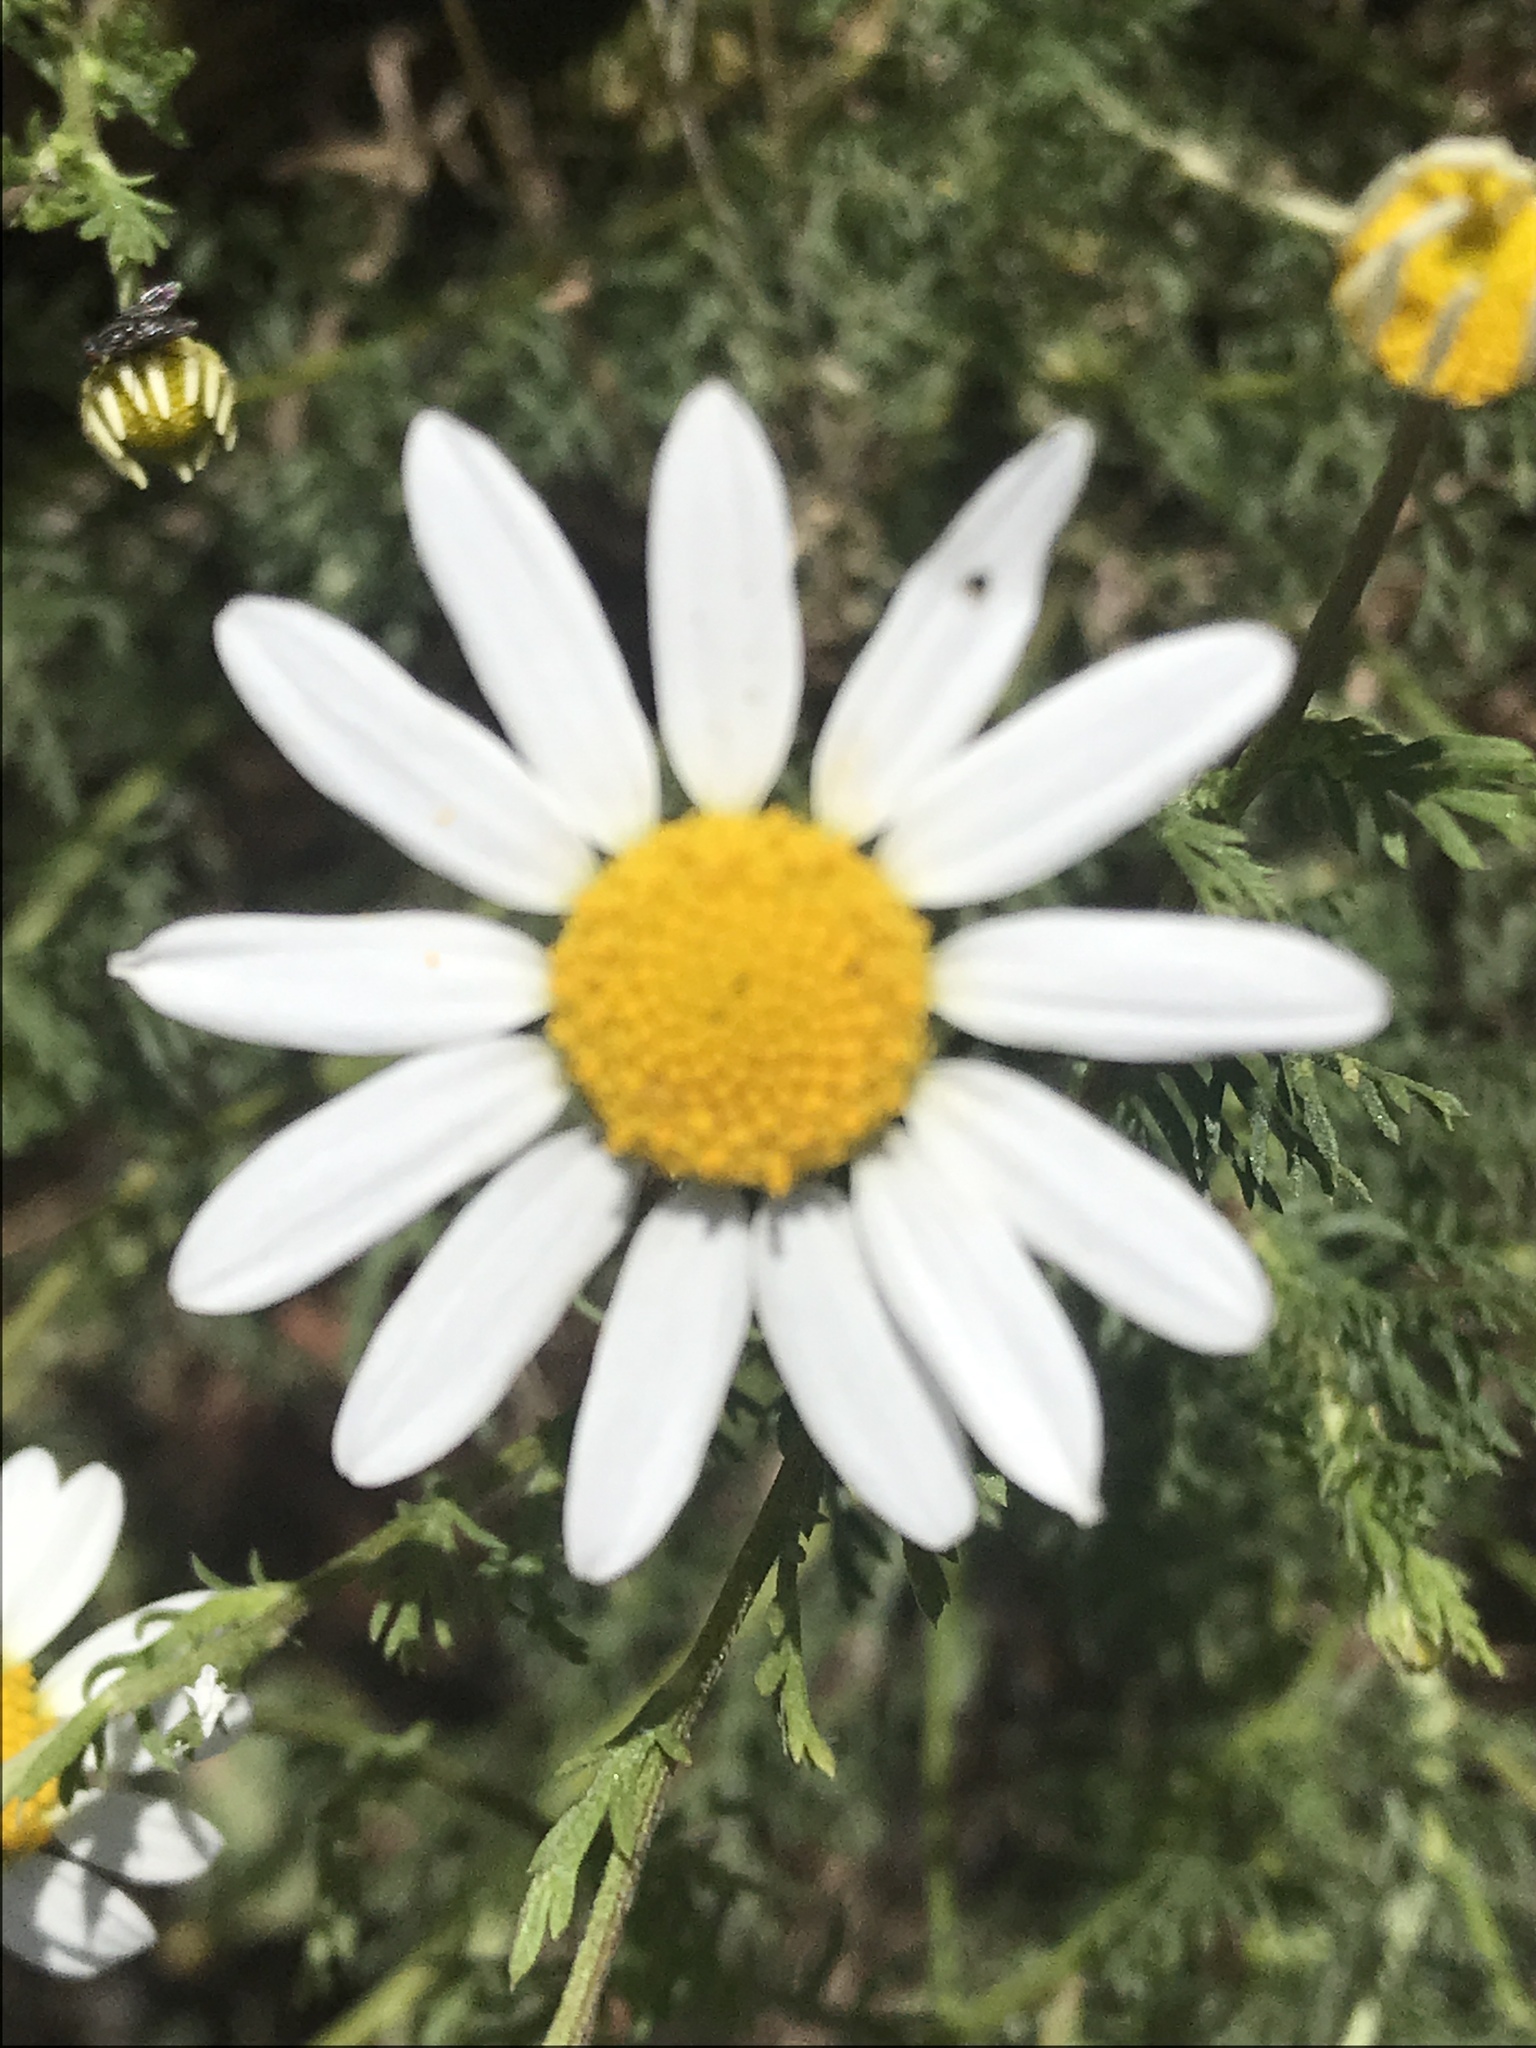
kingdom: Plantae
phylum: Tracheophyta
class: Magnoliopsida
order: Asterales
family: Asteraceae
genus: Anthemis
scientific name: Anthemis cotula
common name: Stinking chamomile
